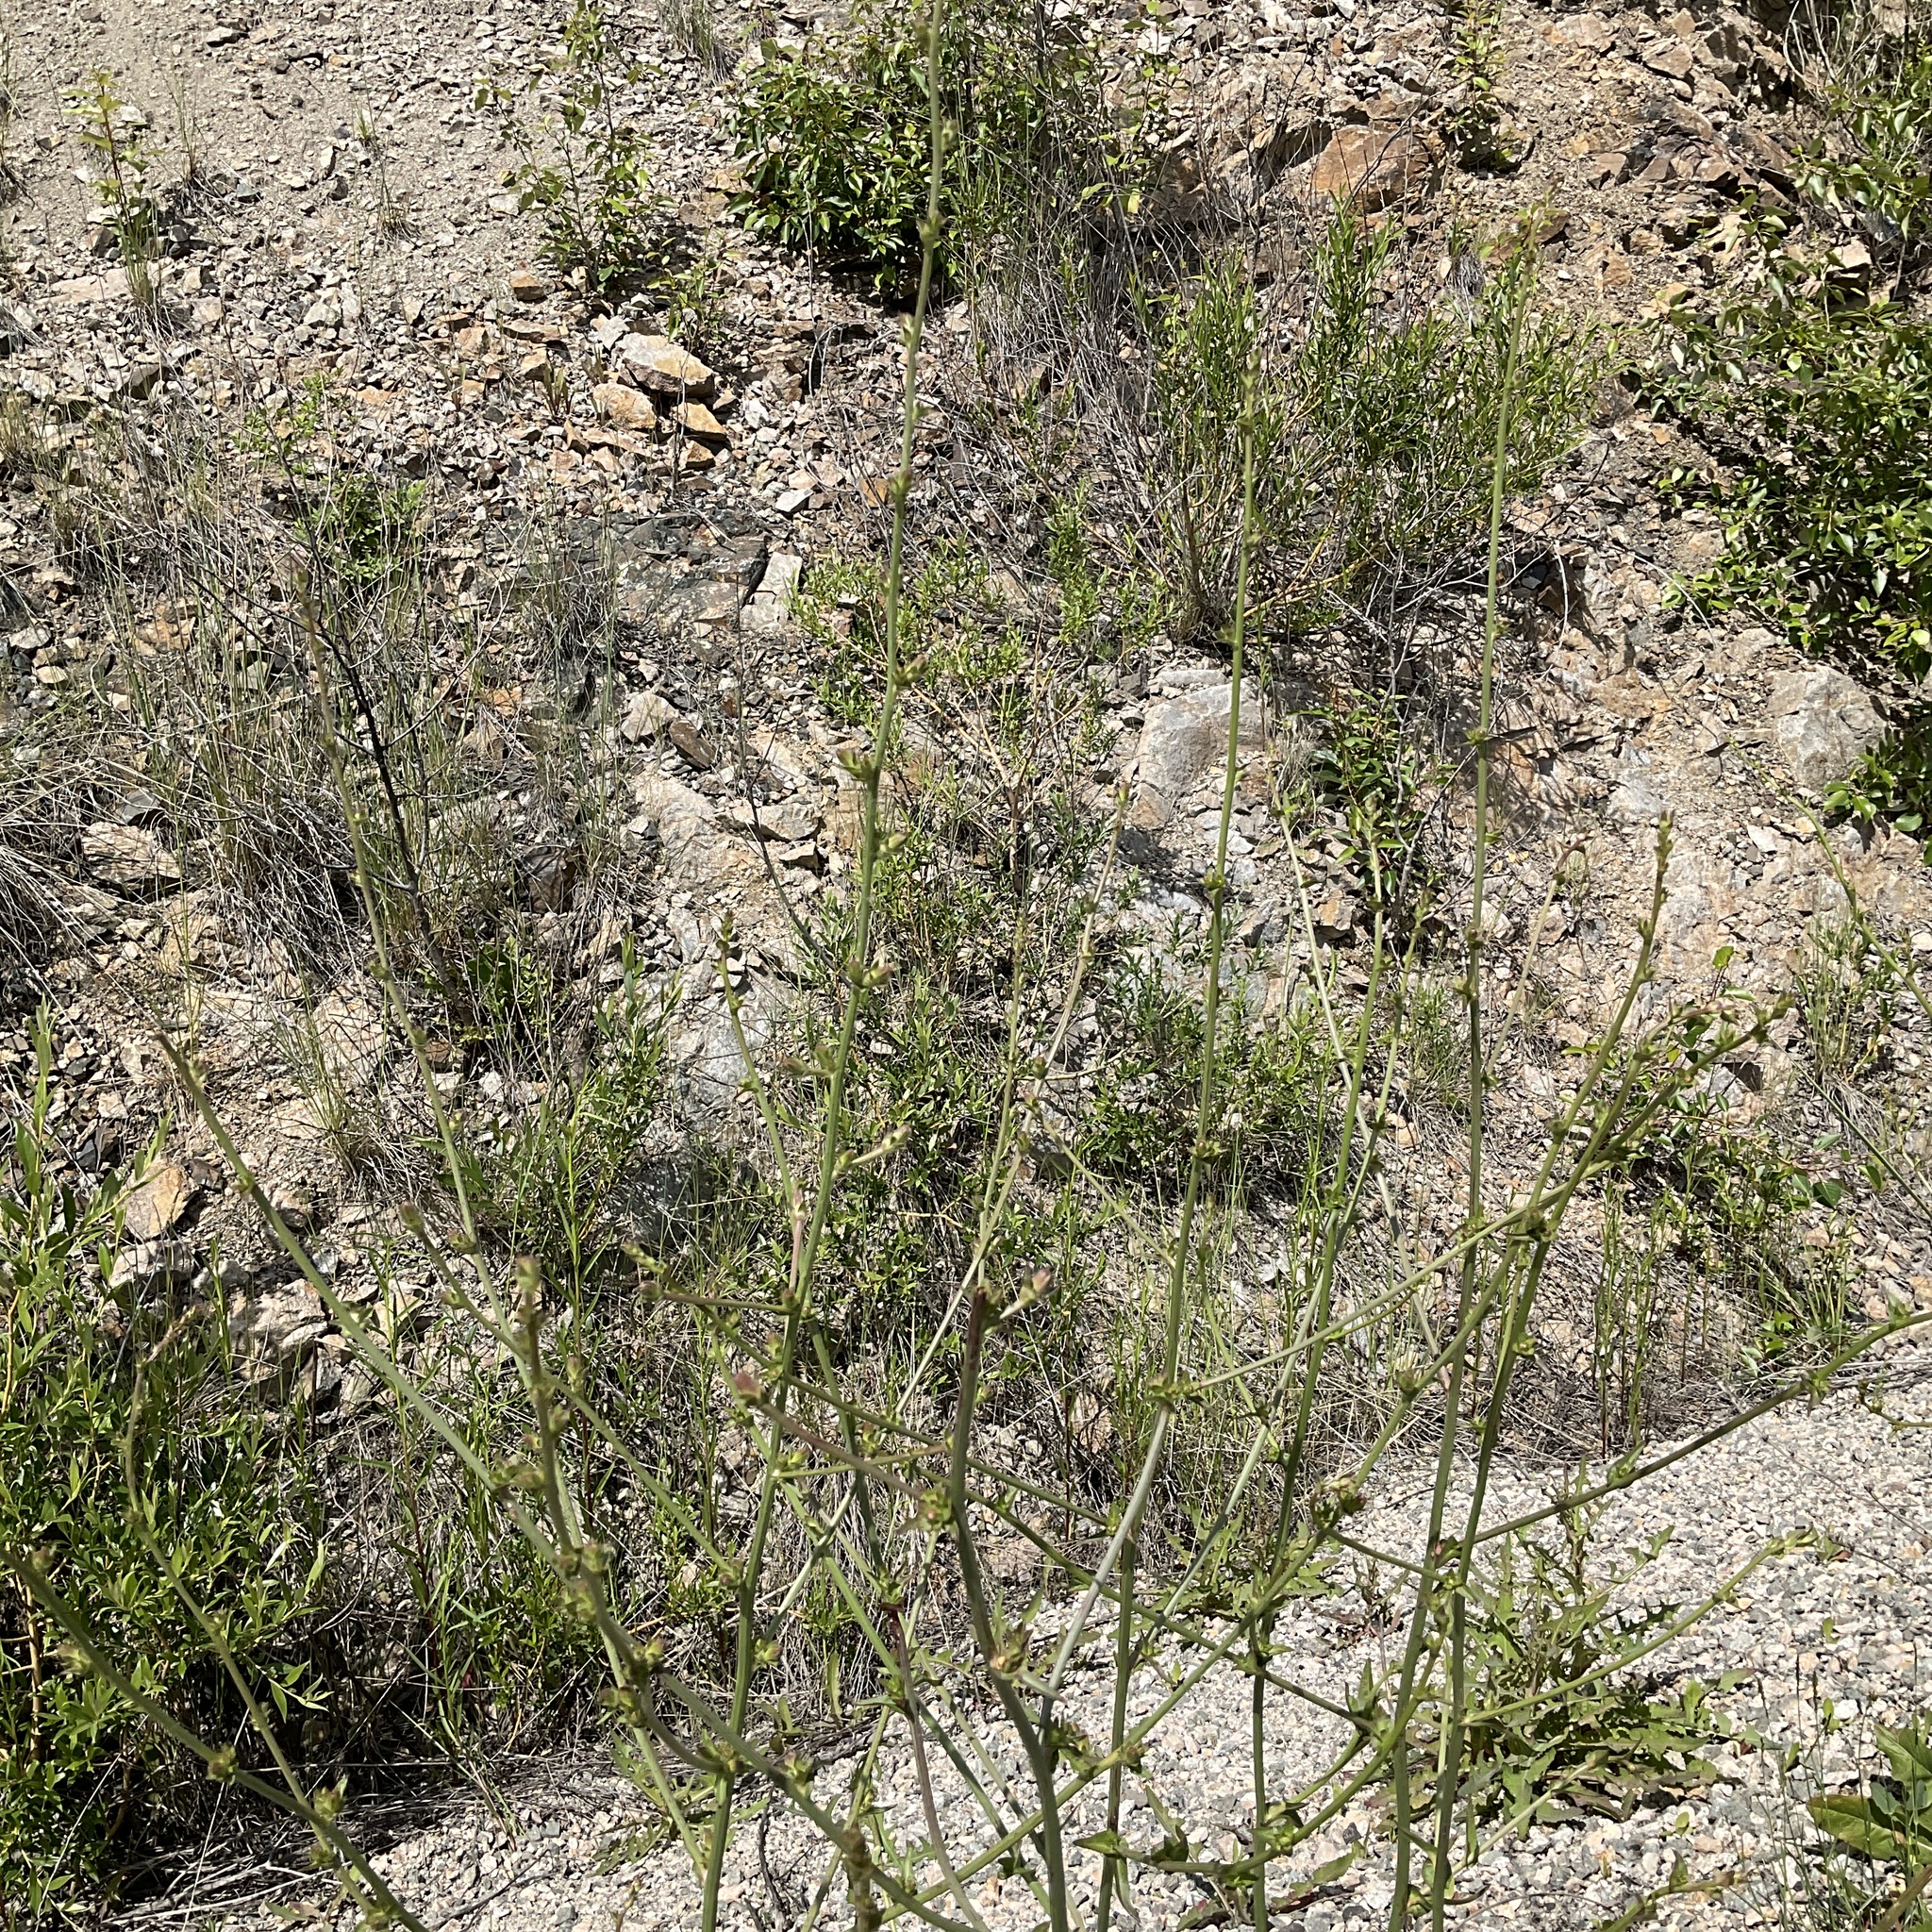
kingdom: Plantae
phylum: Tracheophyta
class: Magnoliopsida
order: Asterales
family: Asteraceae
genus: Cichorium
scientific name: Cichorium intybus
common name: Chicory
